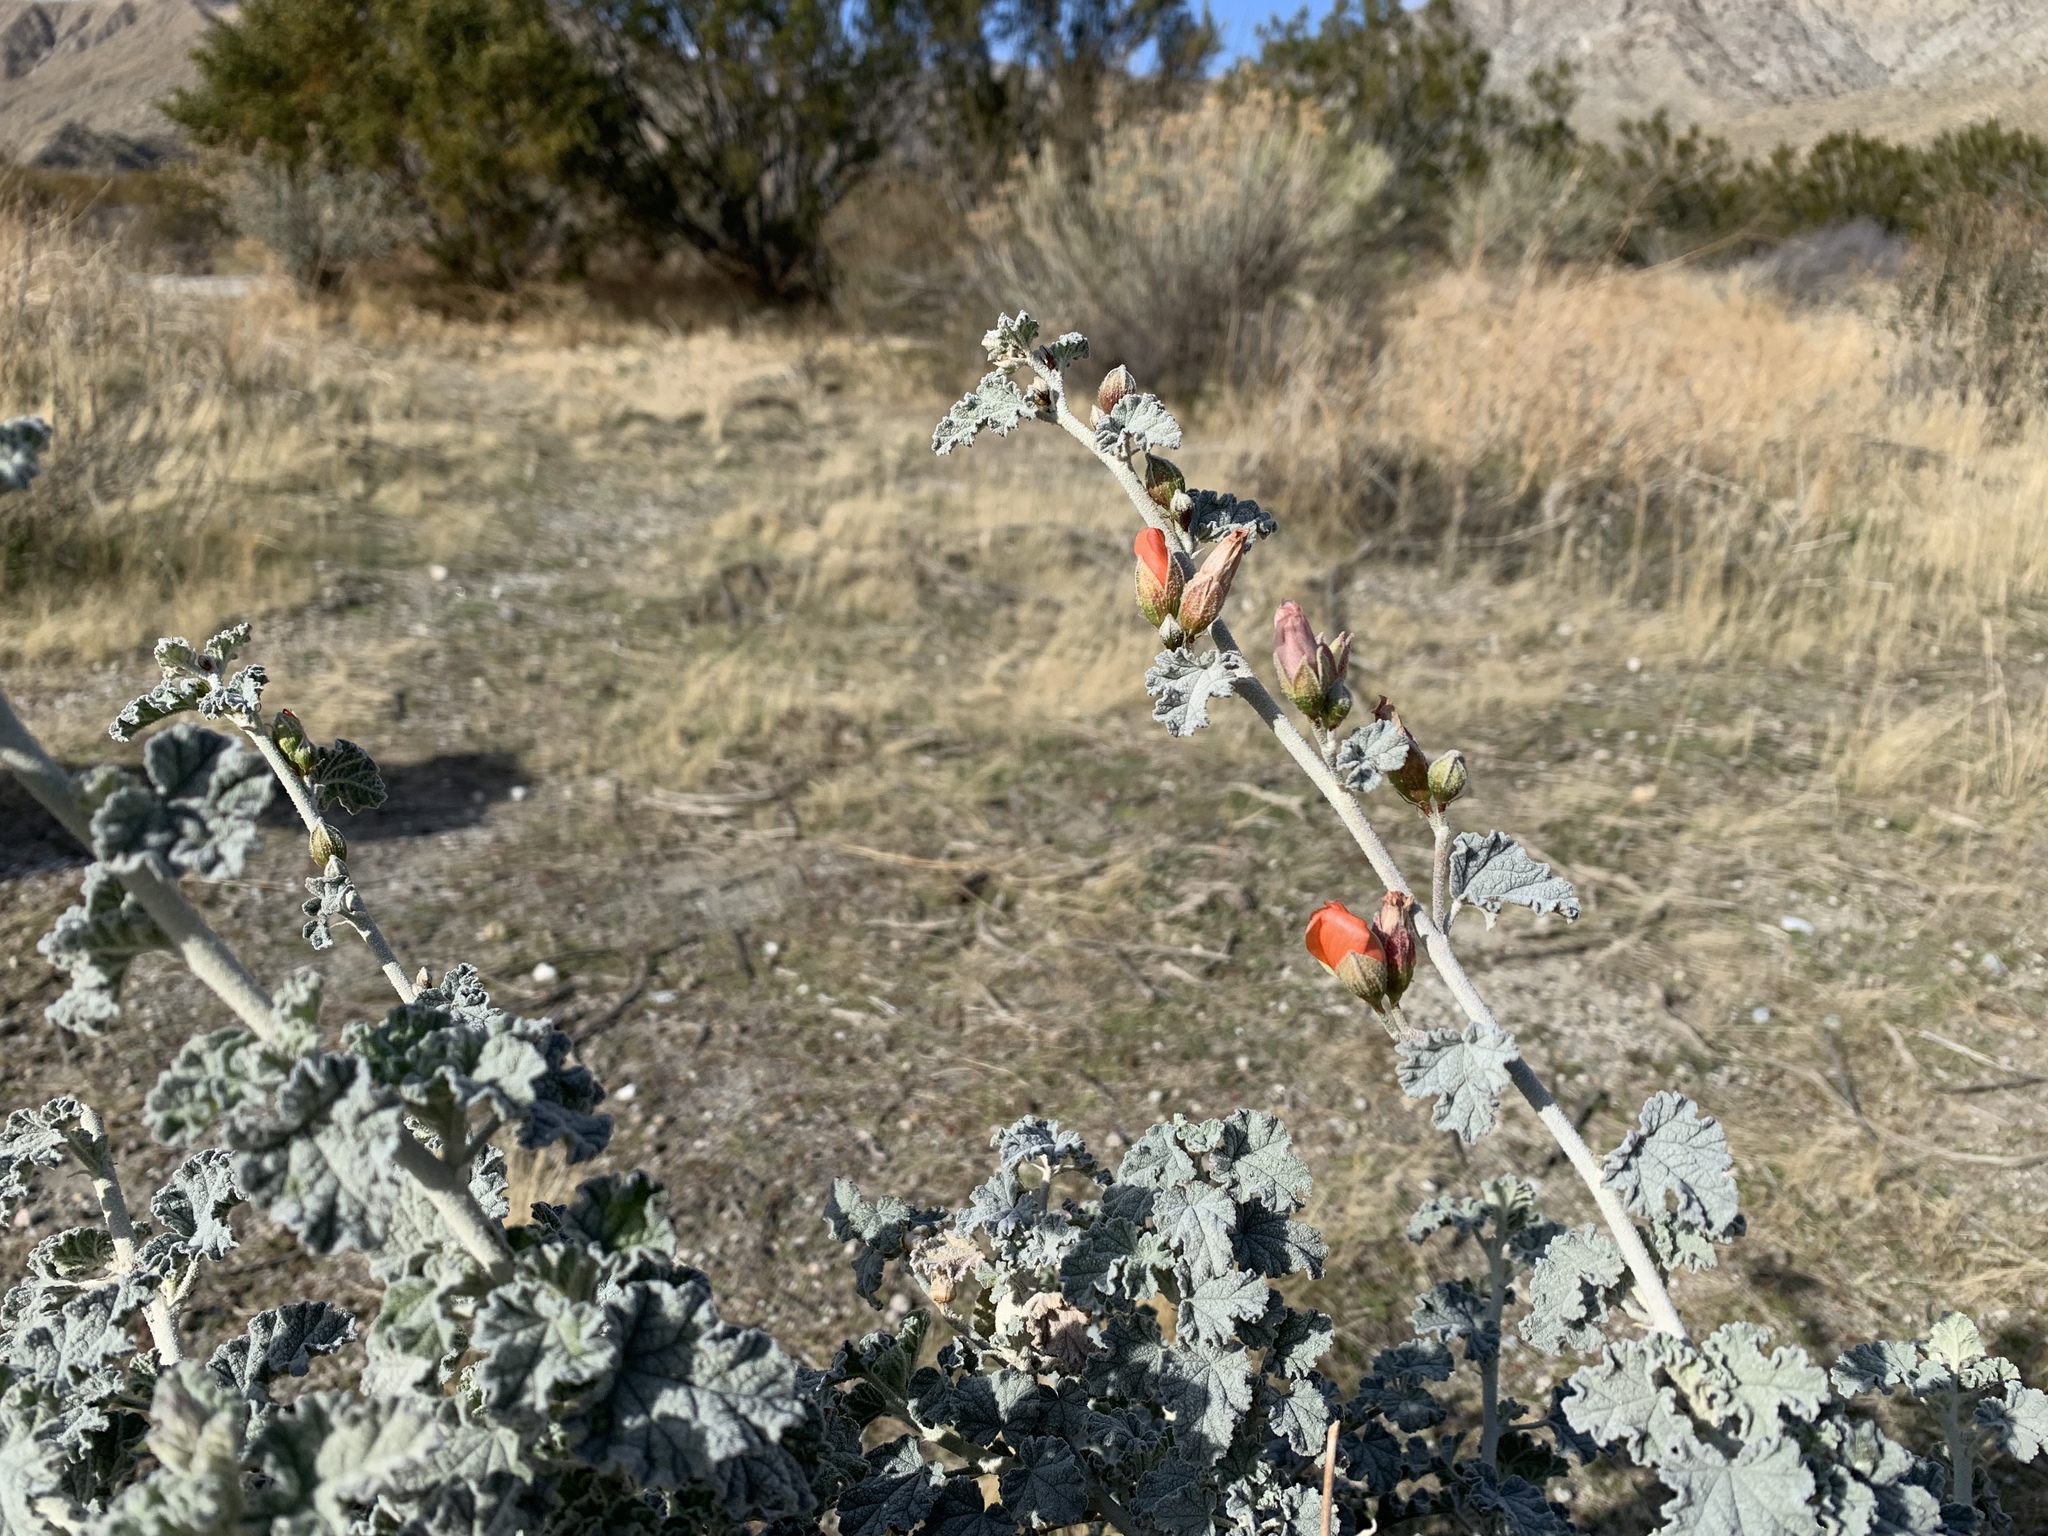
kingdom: Plantae
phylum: Tracheophyta
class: Magnoliopsida
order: Malvales
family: Malvaceae
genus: Sphaeralcea
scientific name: Sphaeralcea ambigua
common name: Apricot globe-mallow
